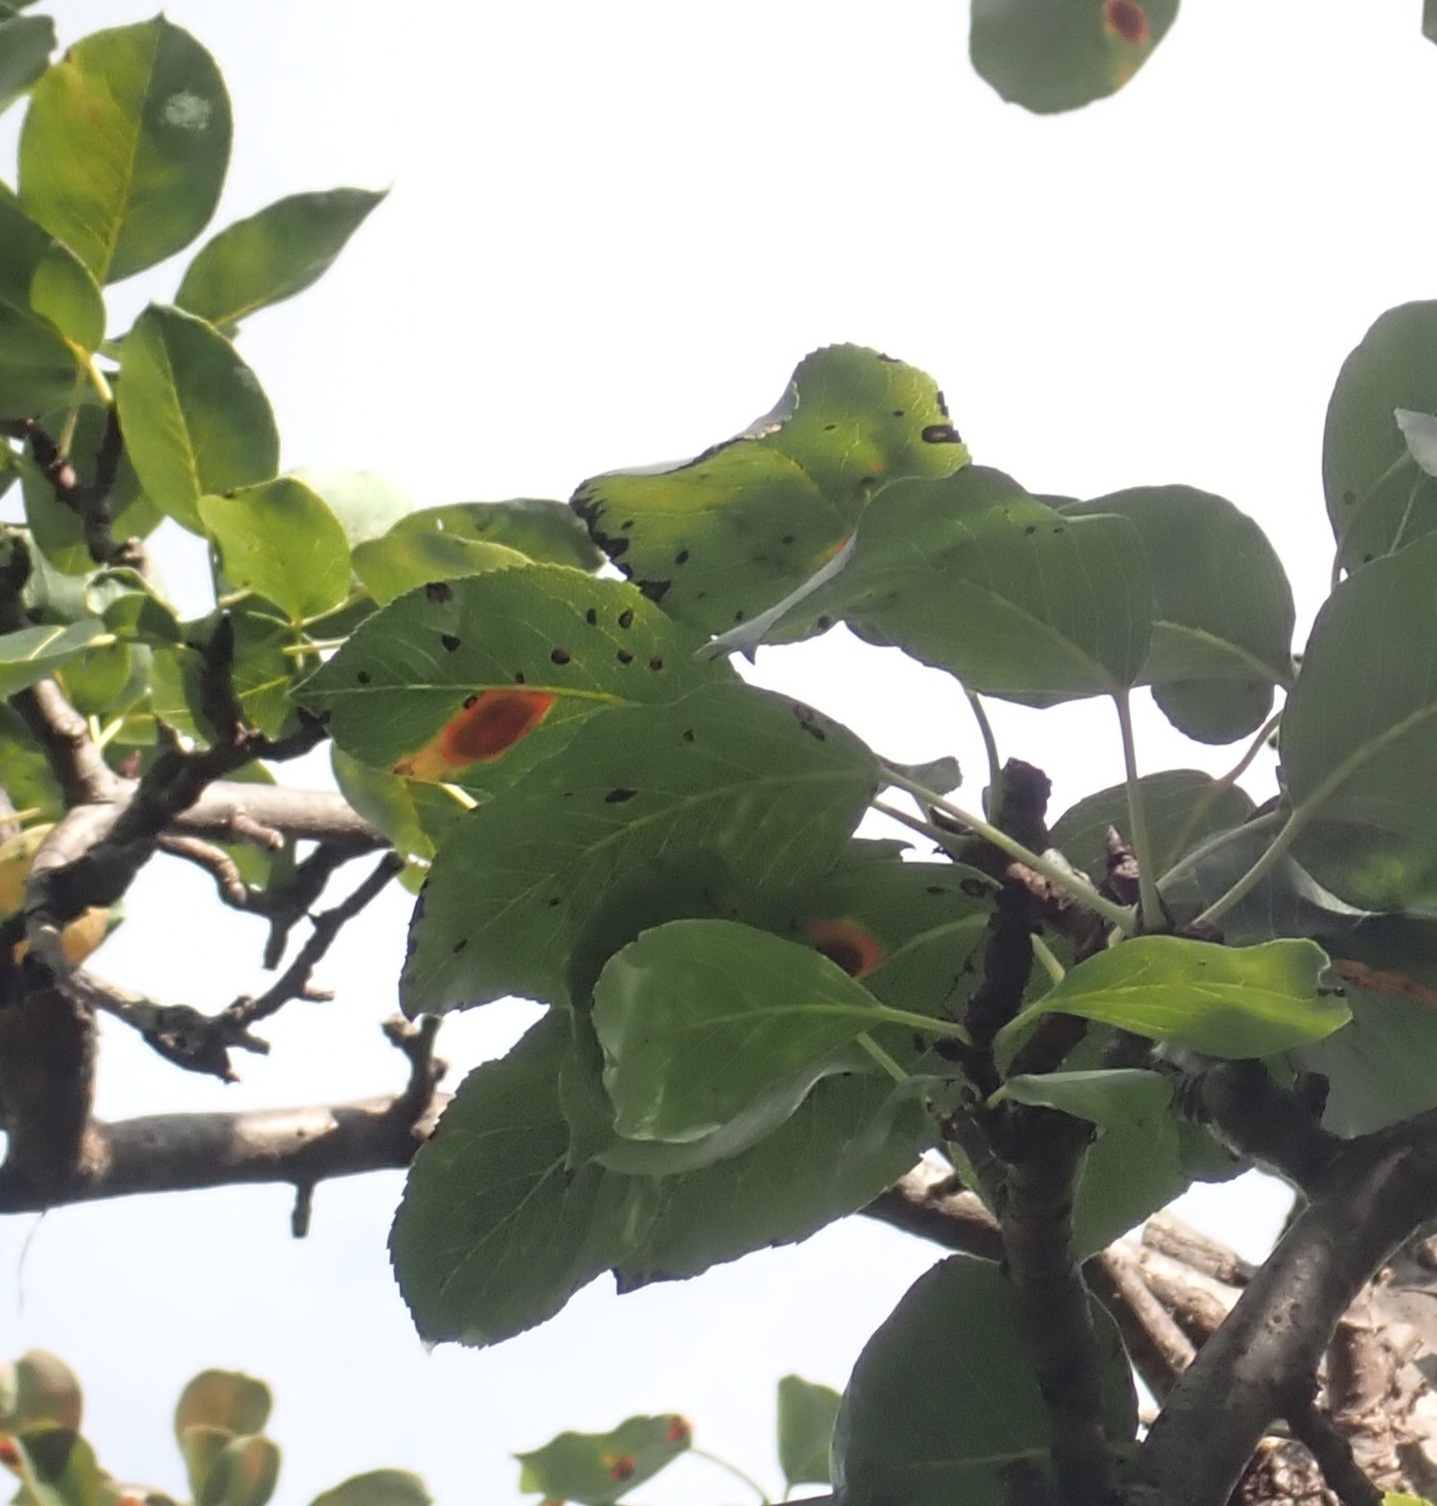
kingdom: Fungi
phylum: Basidiomycota
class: Pucciniomycetes
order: Pucciniales
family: Gymnosporangiaceae
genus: Gymnosporangium
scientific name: Gymnosporangium sabinae
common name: Pear trellis rust fungus
